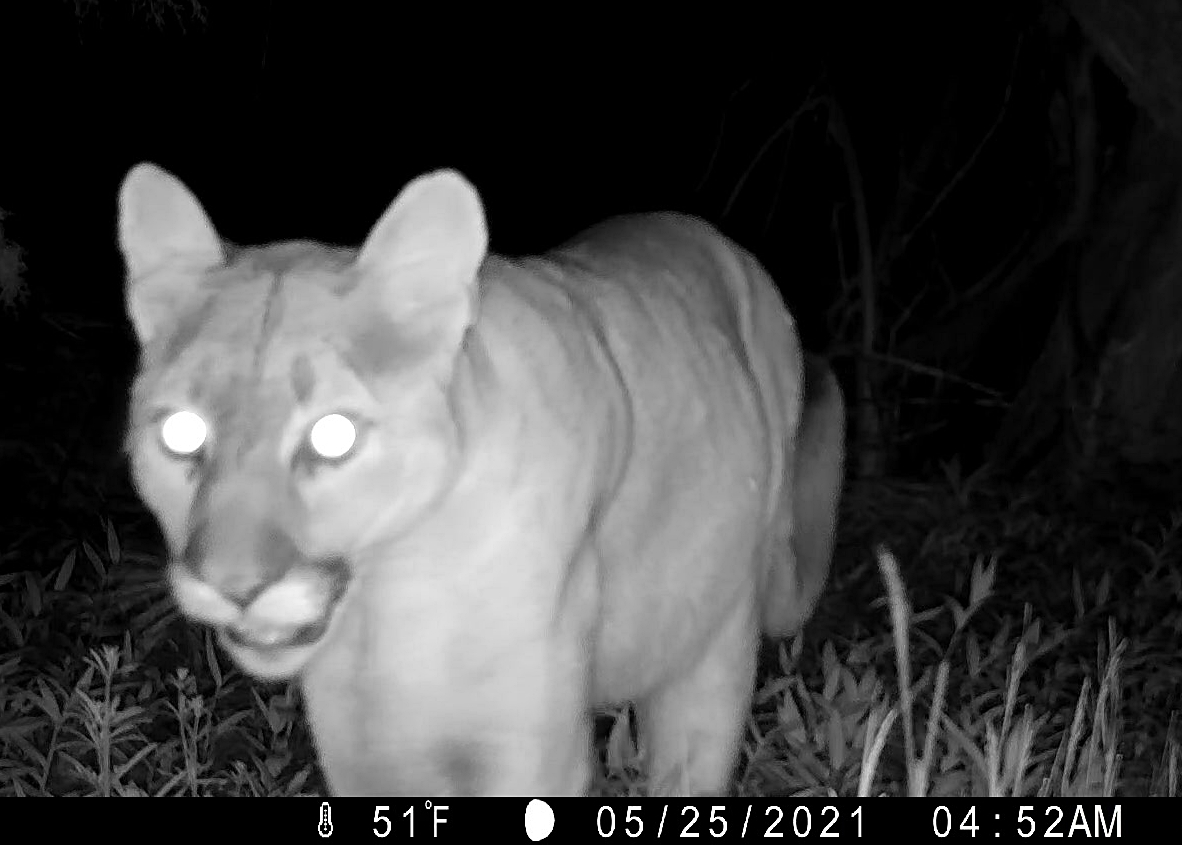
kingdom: Animalia
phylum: Chordata
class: Mammalia
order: Carnivora
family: Felidae
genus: Puma
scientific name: Puma concolor
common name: Puma
